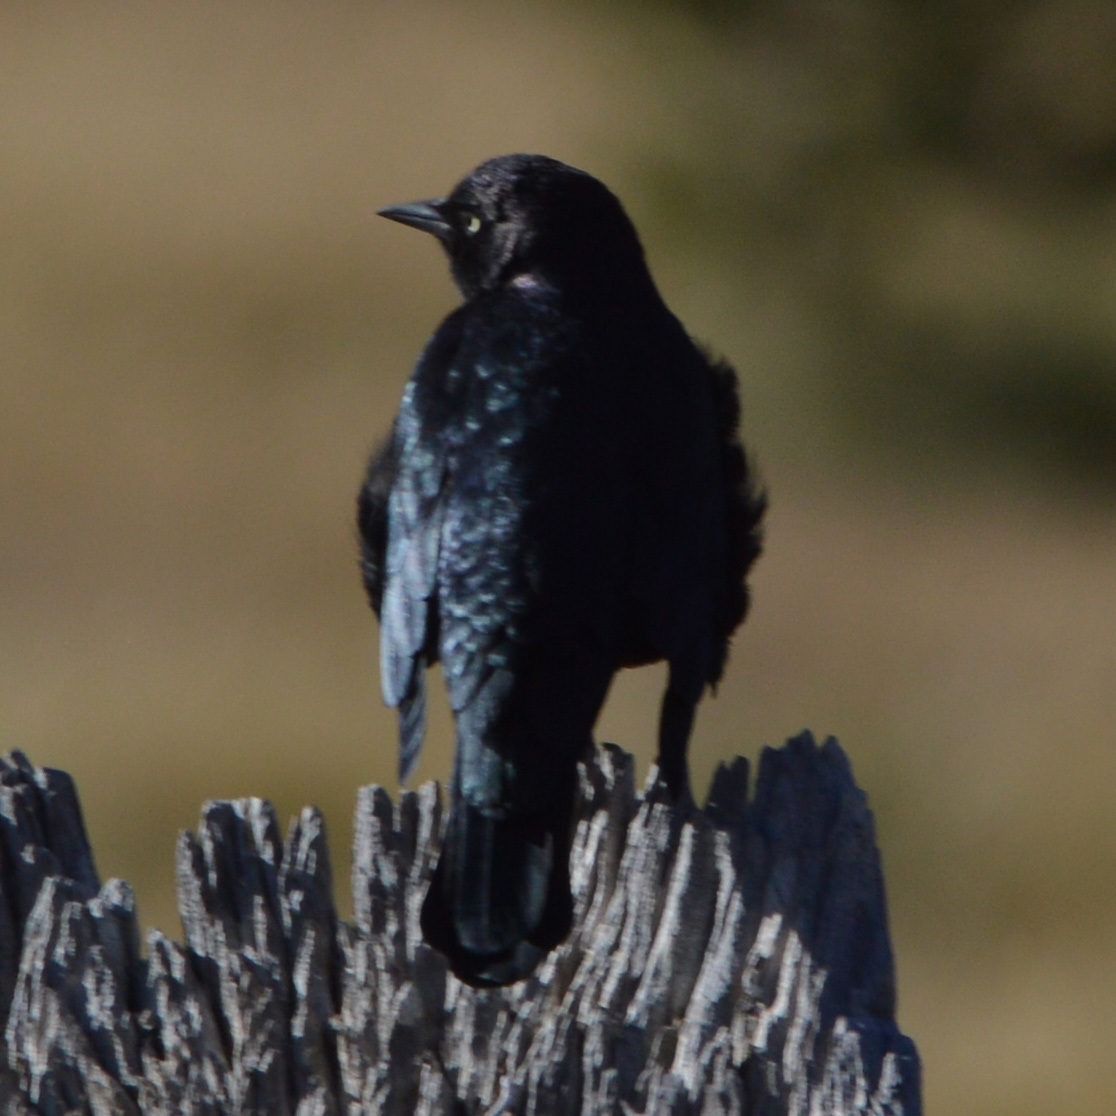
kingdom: Animalia
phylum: Chordata
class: Aves
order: Passeriformes
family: Icteridae
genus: Euphagus
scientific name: Euphagus cyanocephalus
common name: Brewer's blackbird
